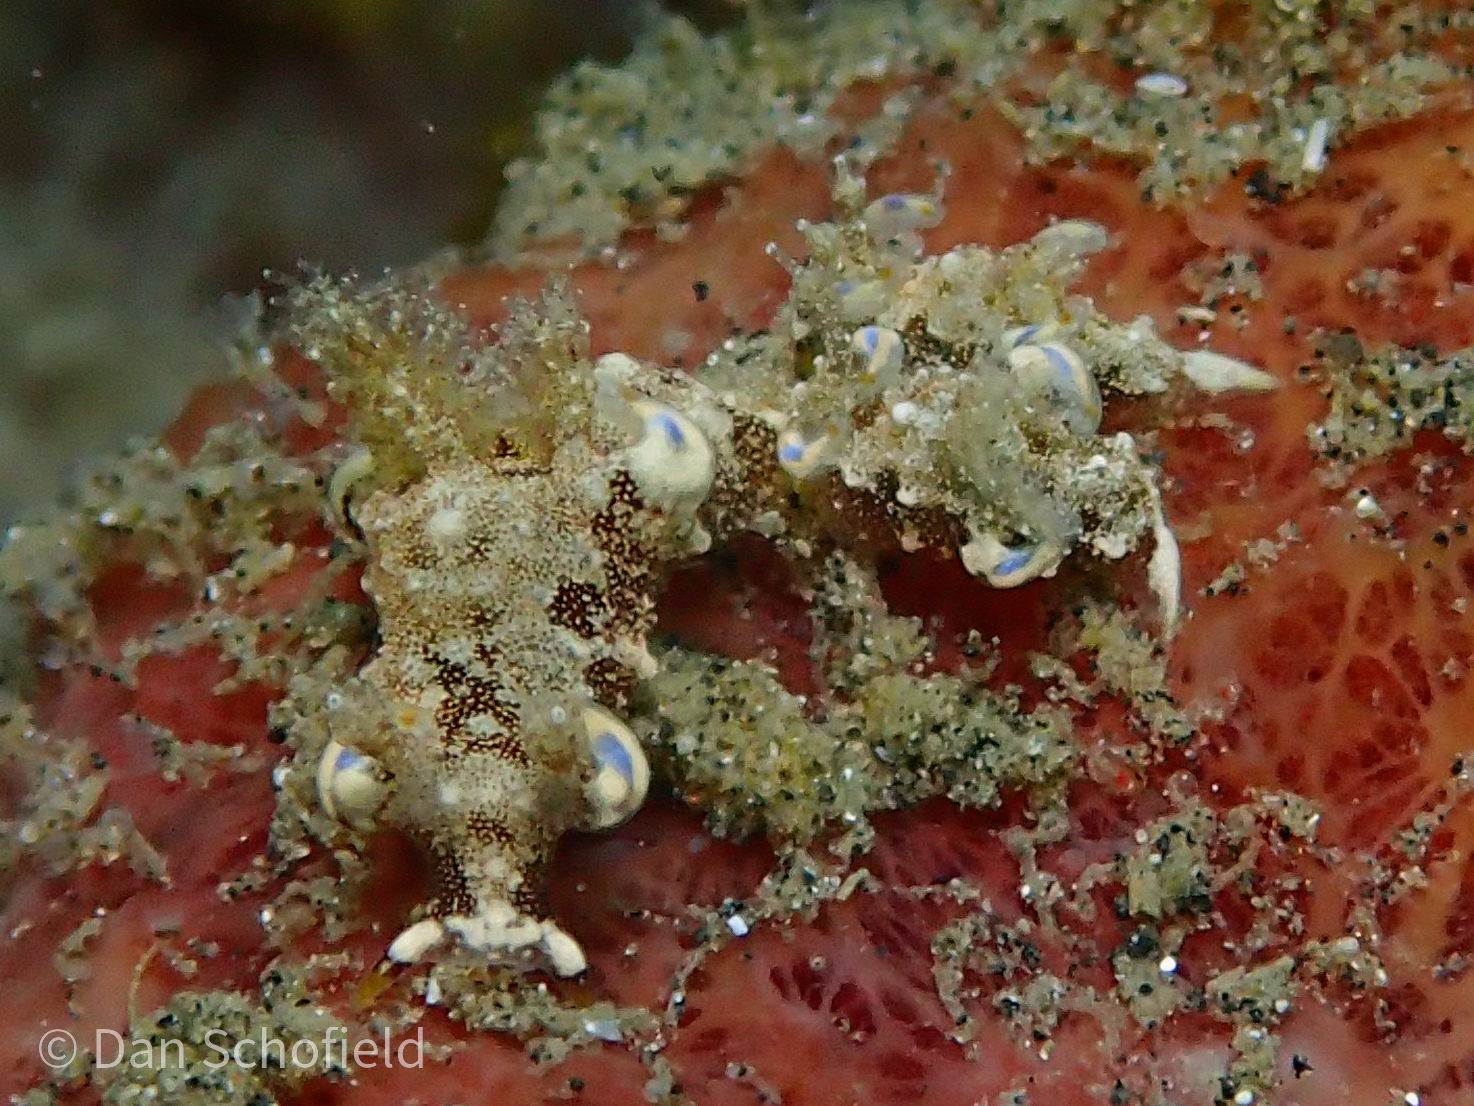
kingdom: Animalia
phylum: Mollusca
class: Gastropoda
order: Nudibranchia
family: Goniodorididae
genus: Trapania
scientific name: Trapania palmula
